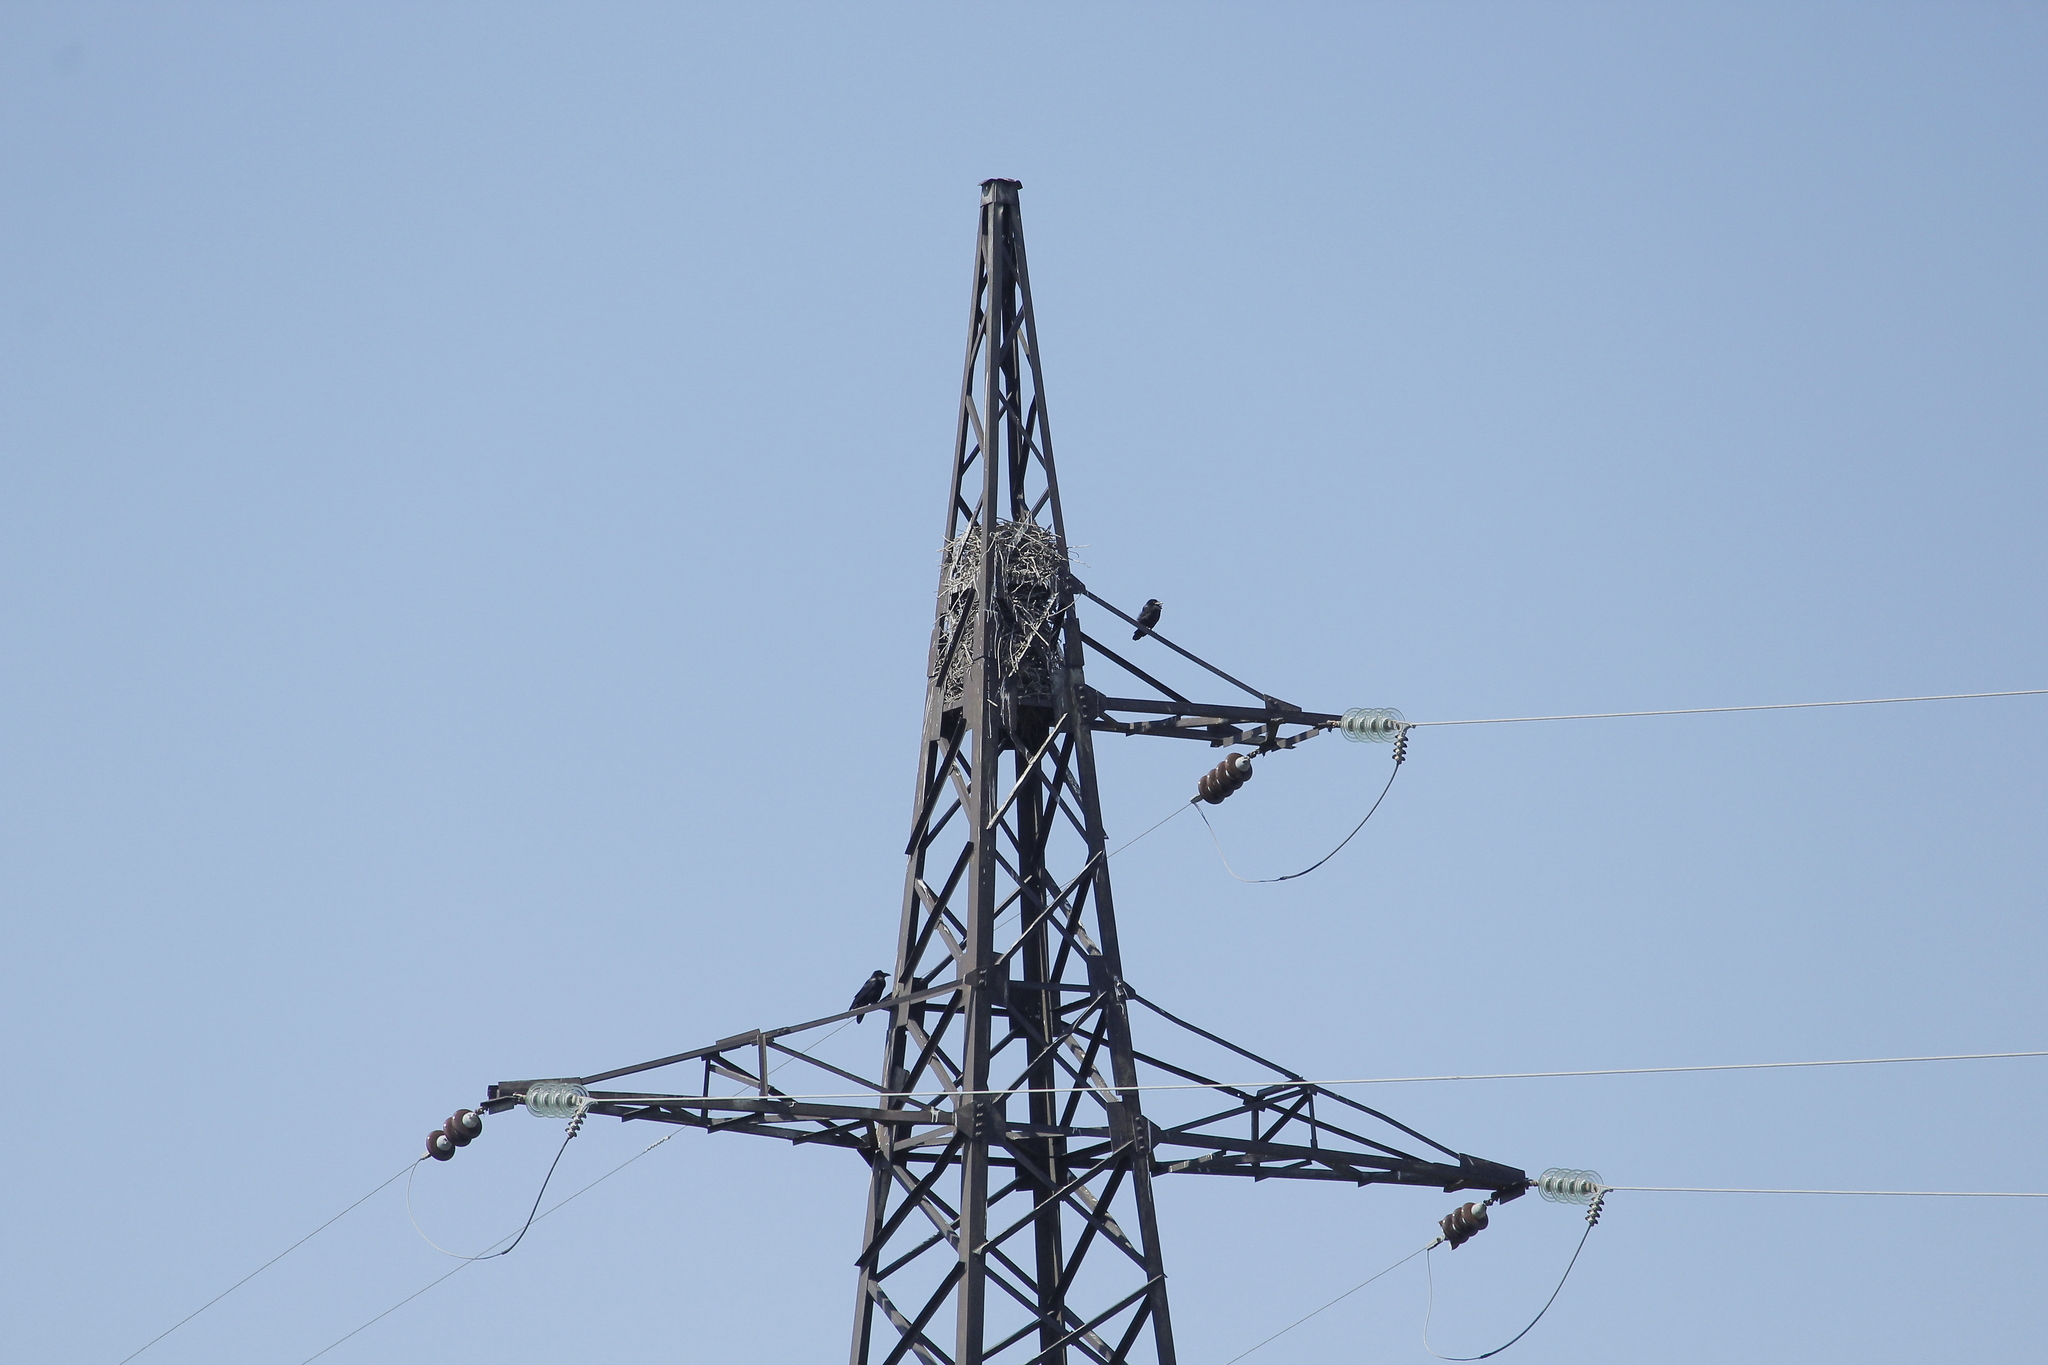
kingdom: Animalia
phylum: Chordata
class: Aves
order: Passeriformes
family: Corvidae
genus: Corvus
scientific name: Corvus corax
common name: Common raven
